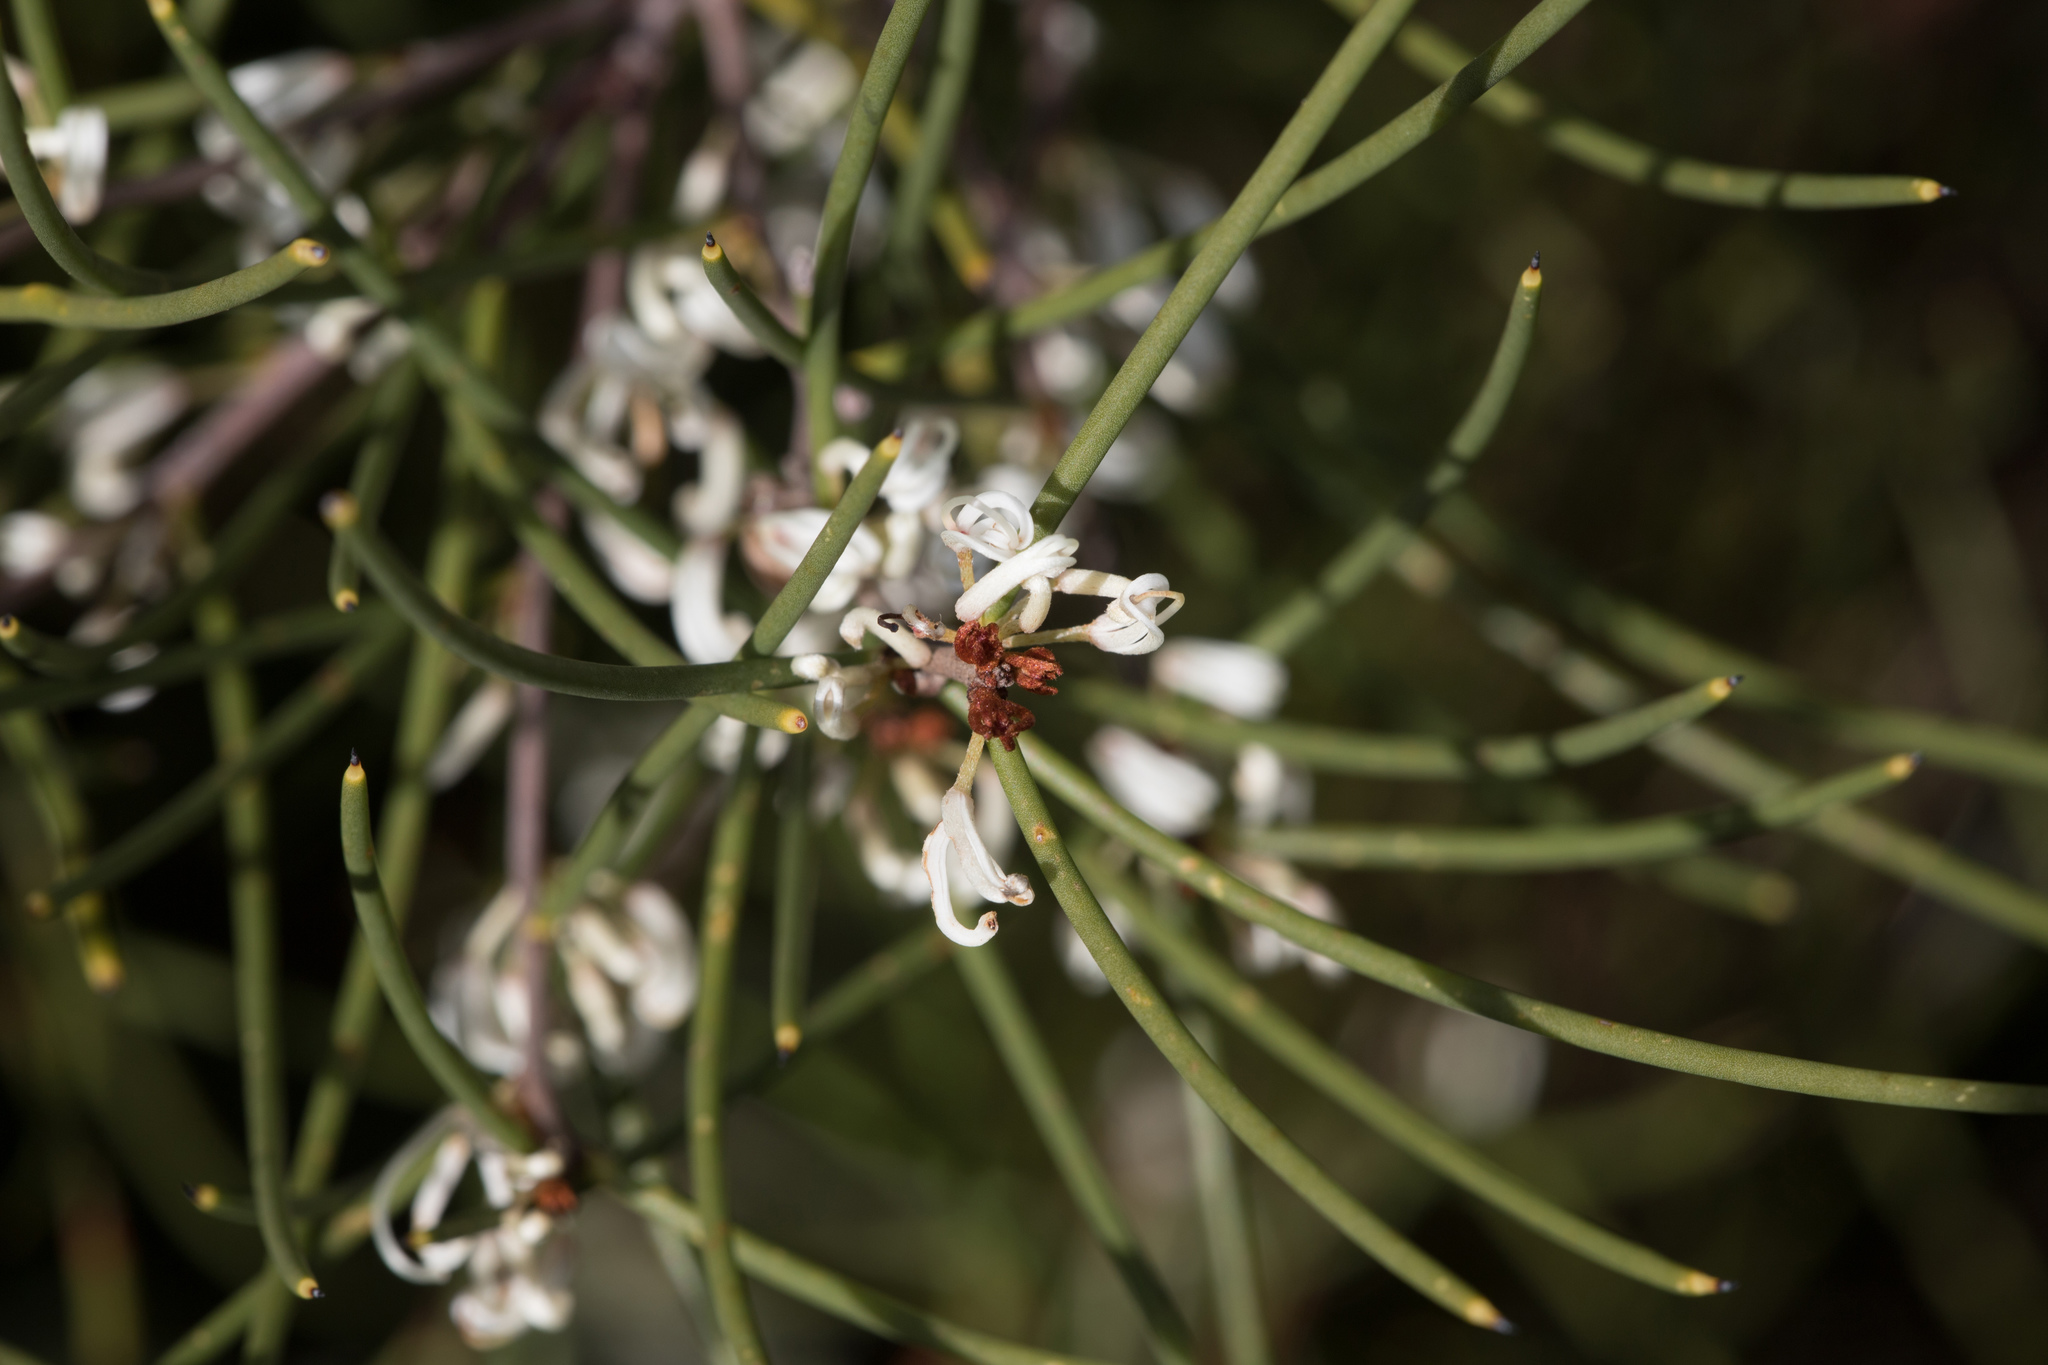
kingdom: Plantae
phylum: Tracheophyta
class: Magnoliopsida
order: Proteales
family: Proteaceae
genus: Hakea
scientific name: Hakea rostrata
